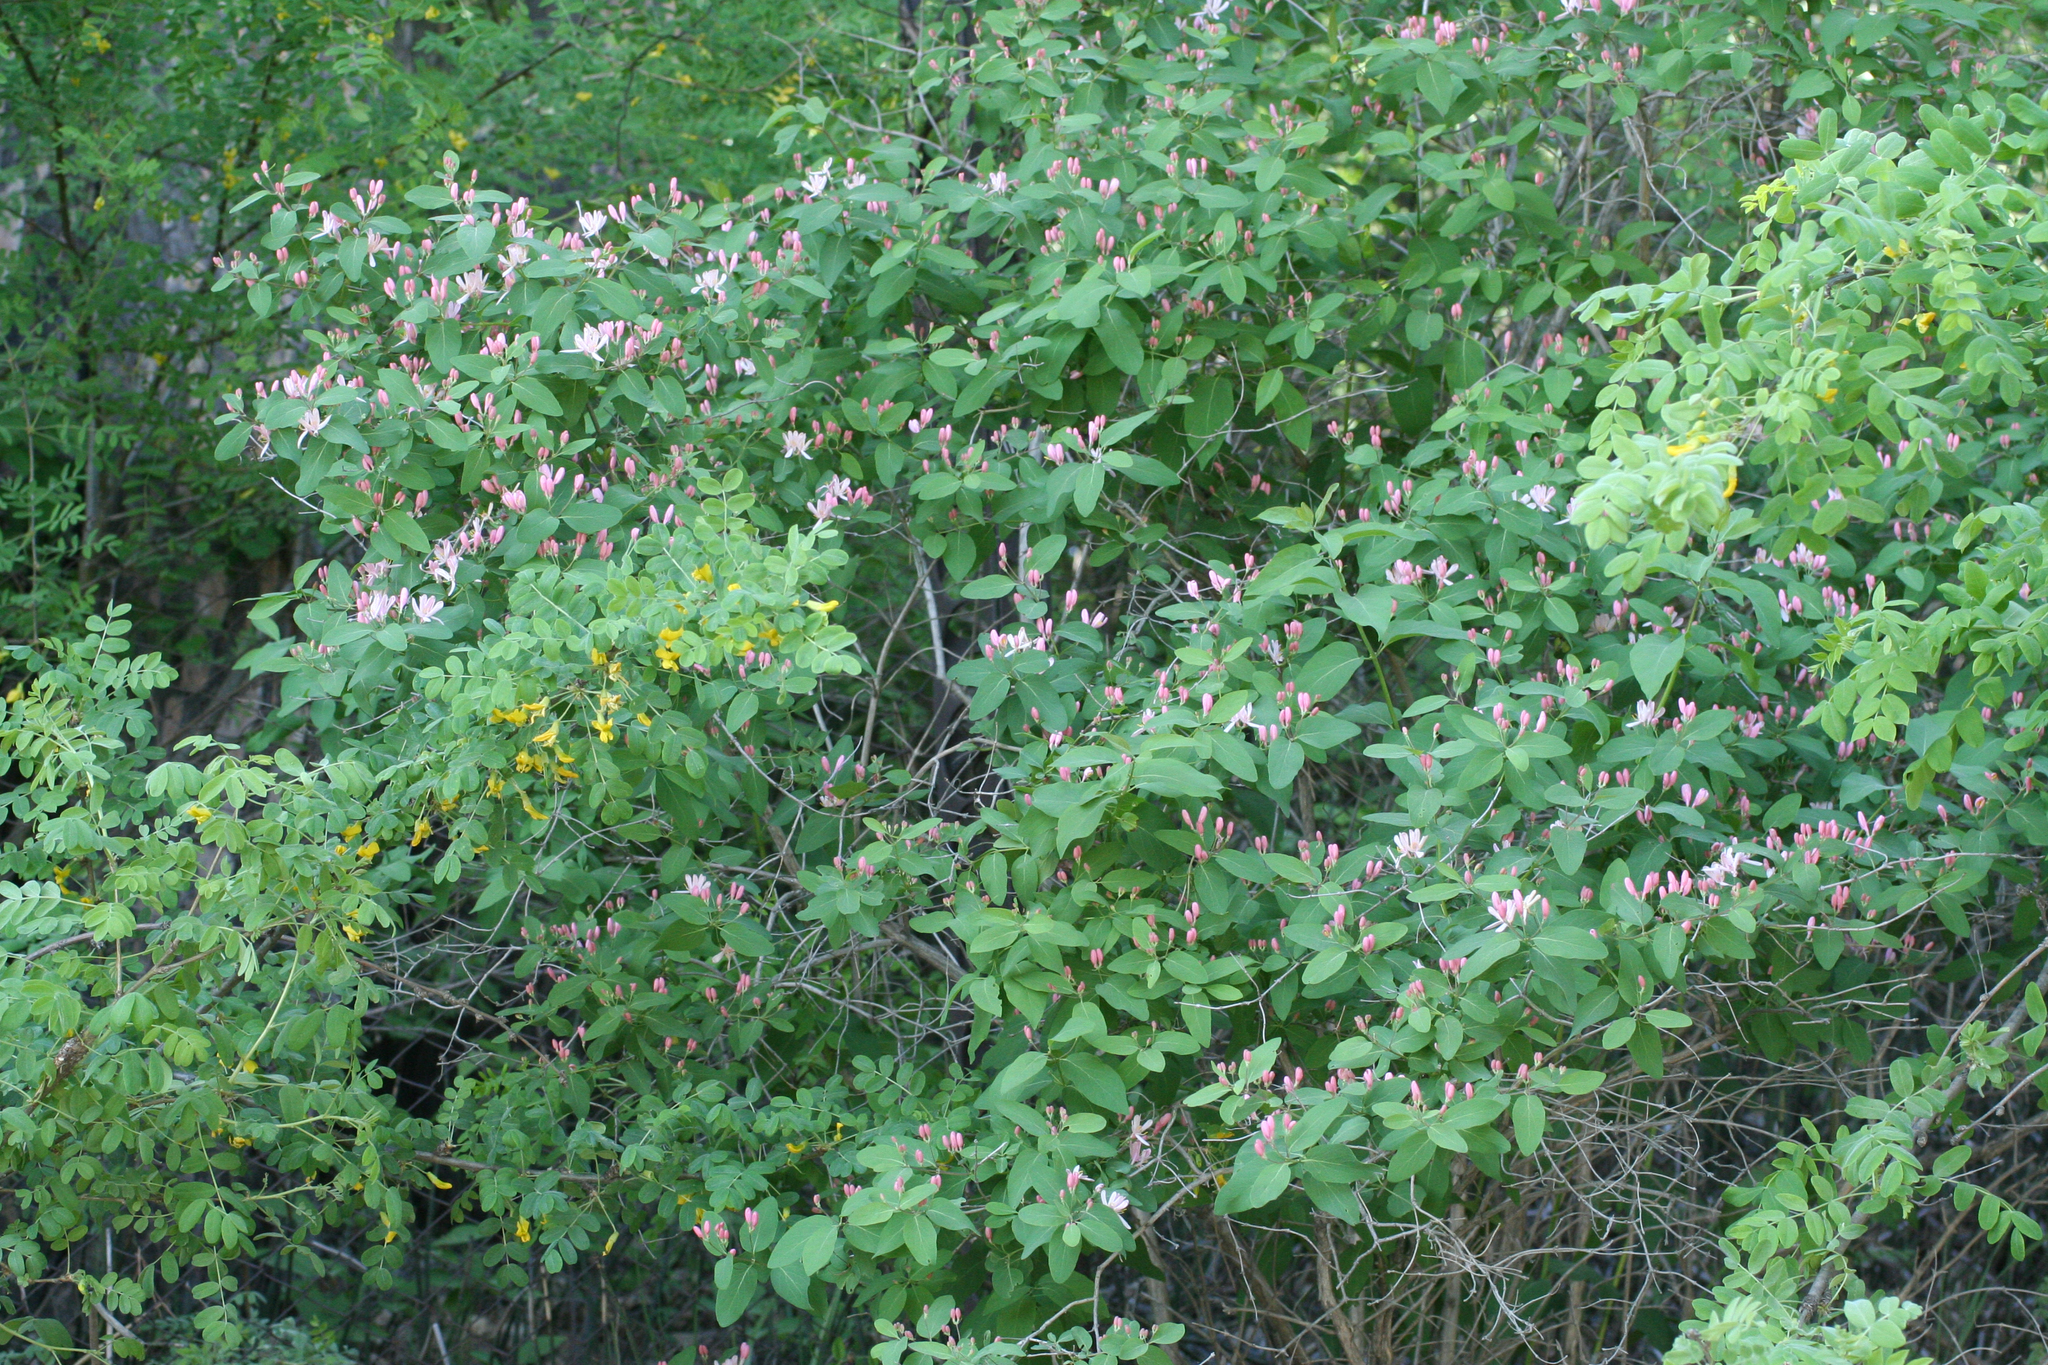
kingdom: Plantae
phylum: Tracheophyta
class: Magnoliopsida
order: Dipsacales
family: Caprifoliaceae
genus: Lonicera
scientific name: Lonicera tatarica
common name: Tatarian honeysuckle
